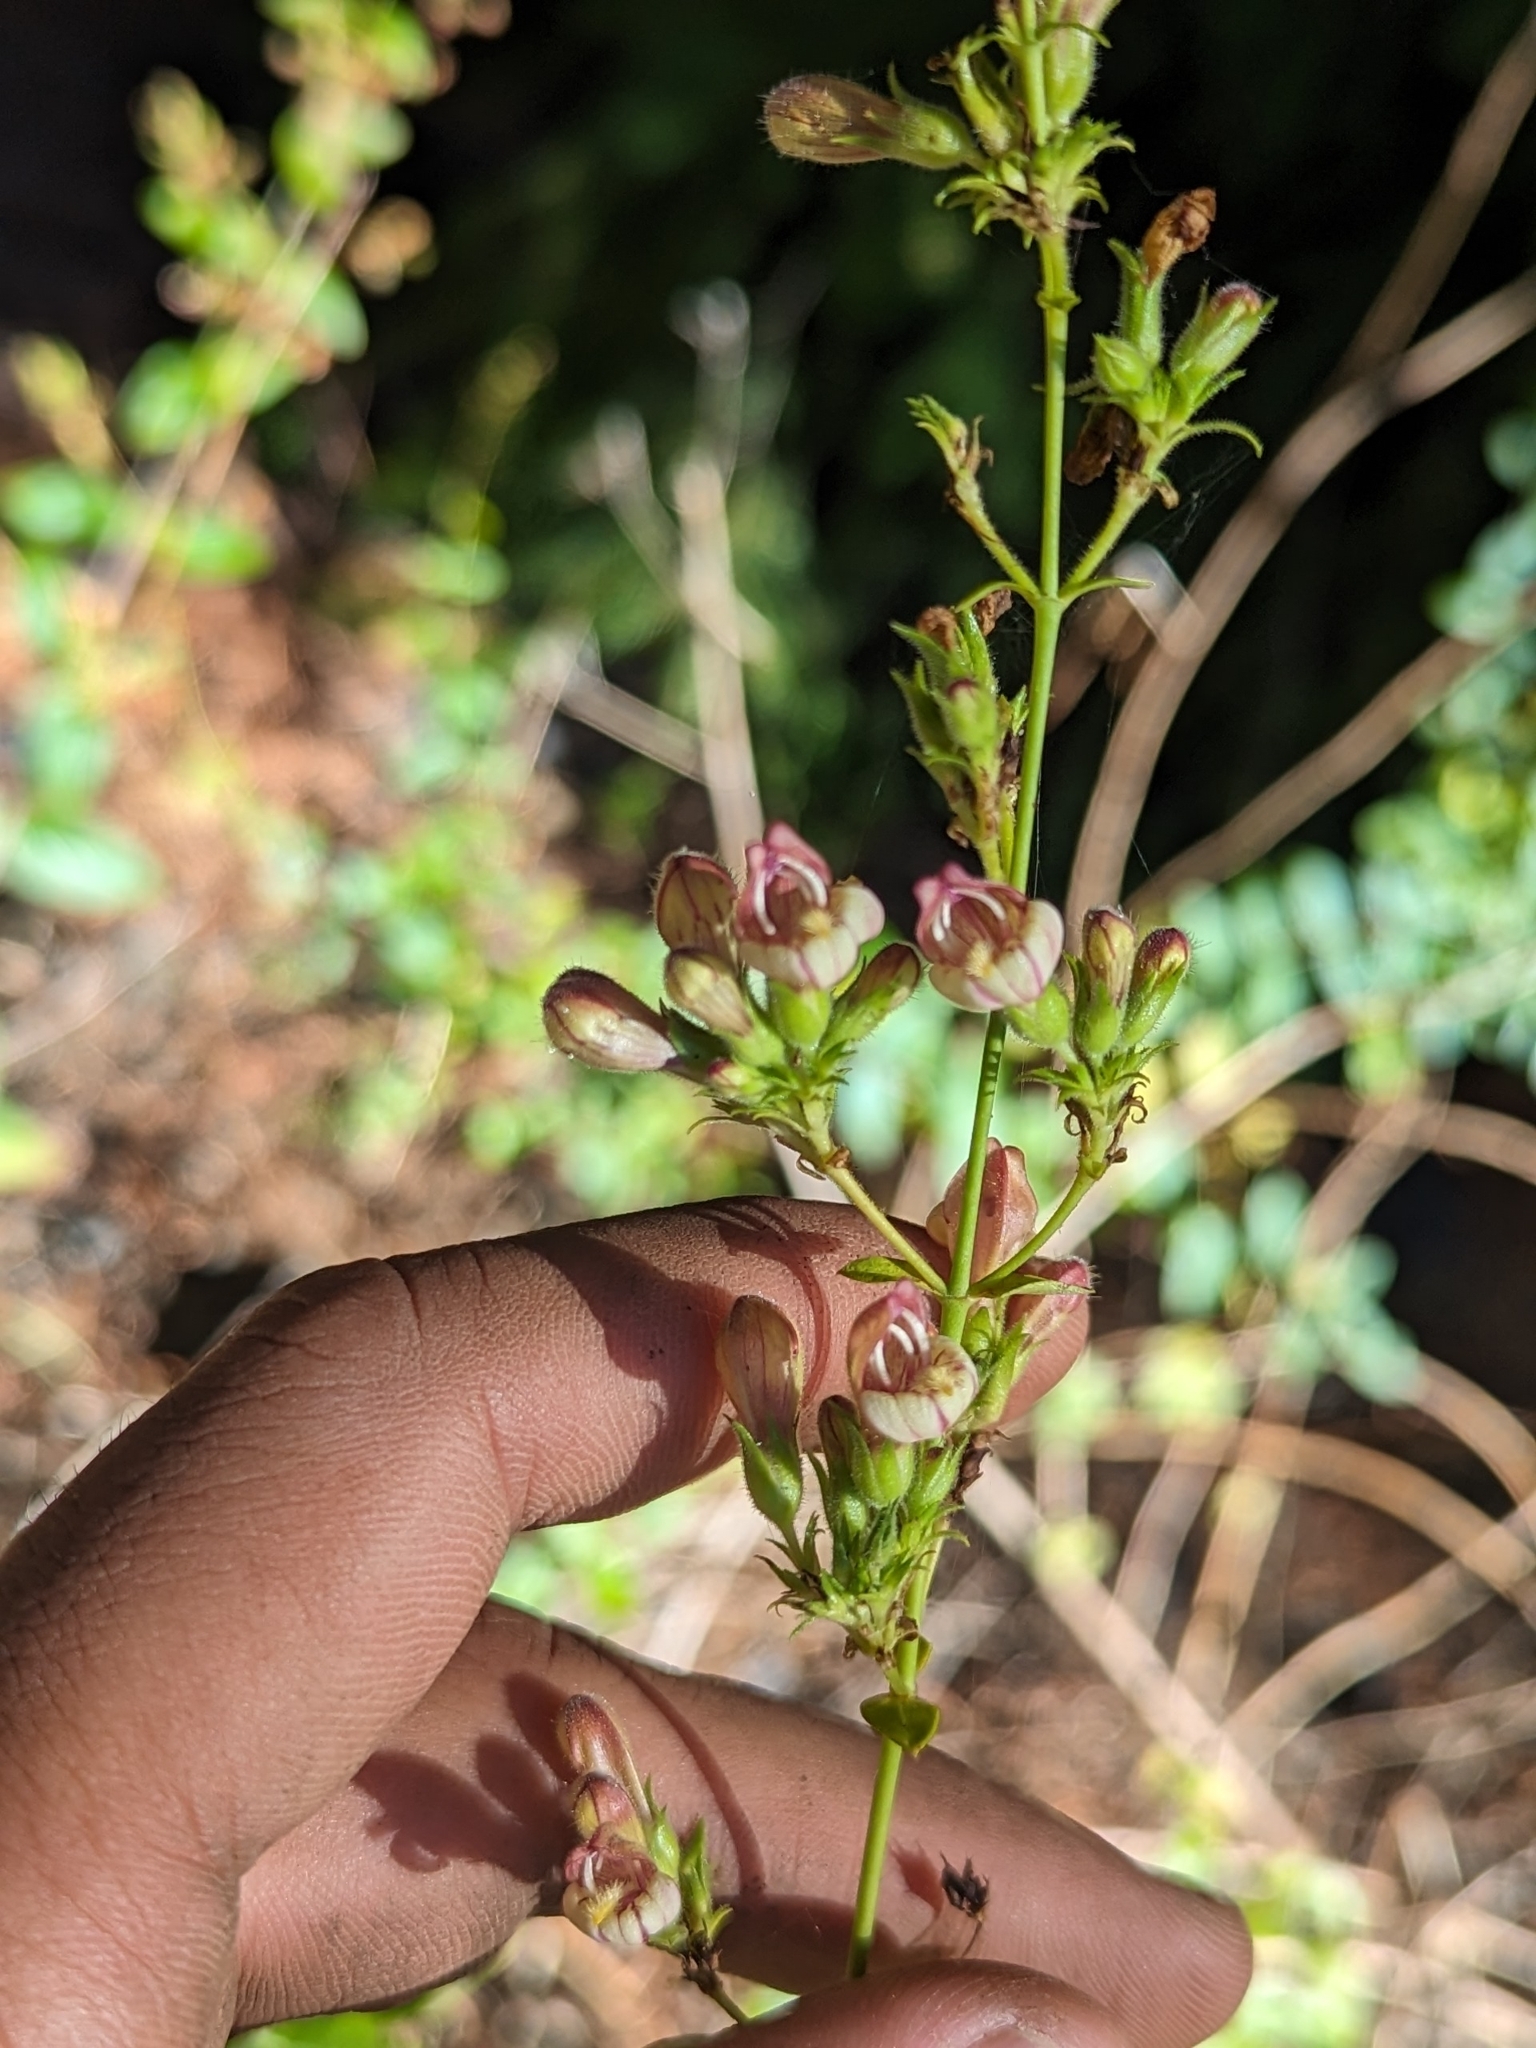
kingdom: Plantae
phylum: Tracheophyta
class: Magnoliopsida
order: Lamiales
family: Plantaginaceae
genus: Keckiella
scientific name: Keckiella lemmonii
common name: Lemmon's keckiella
